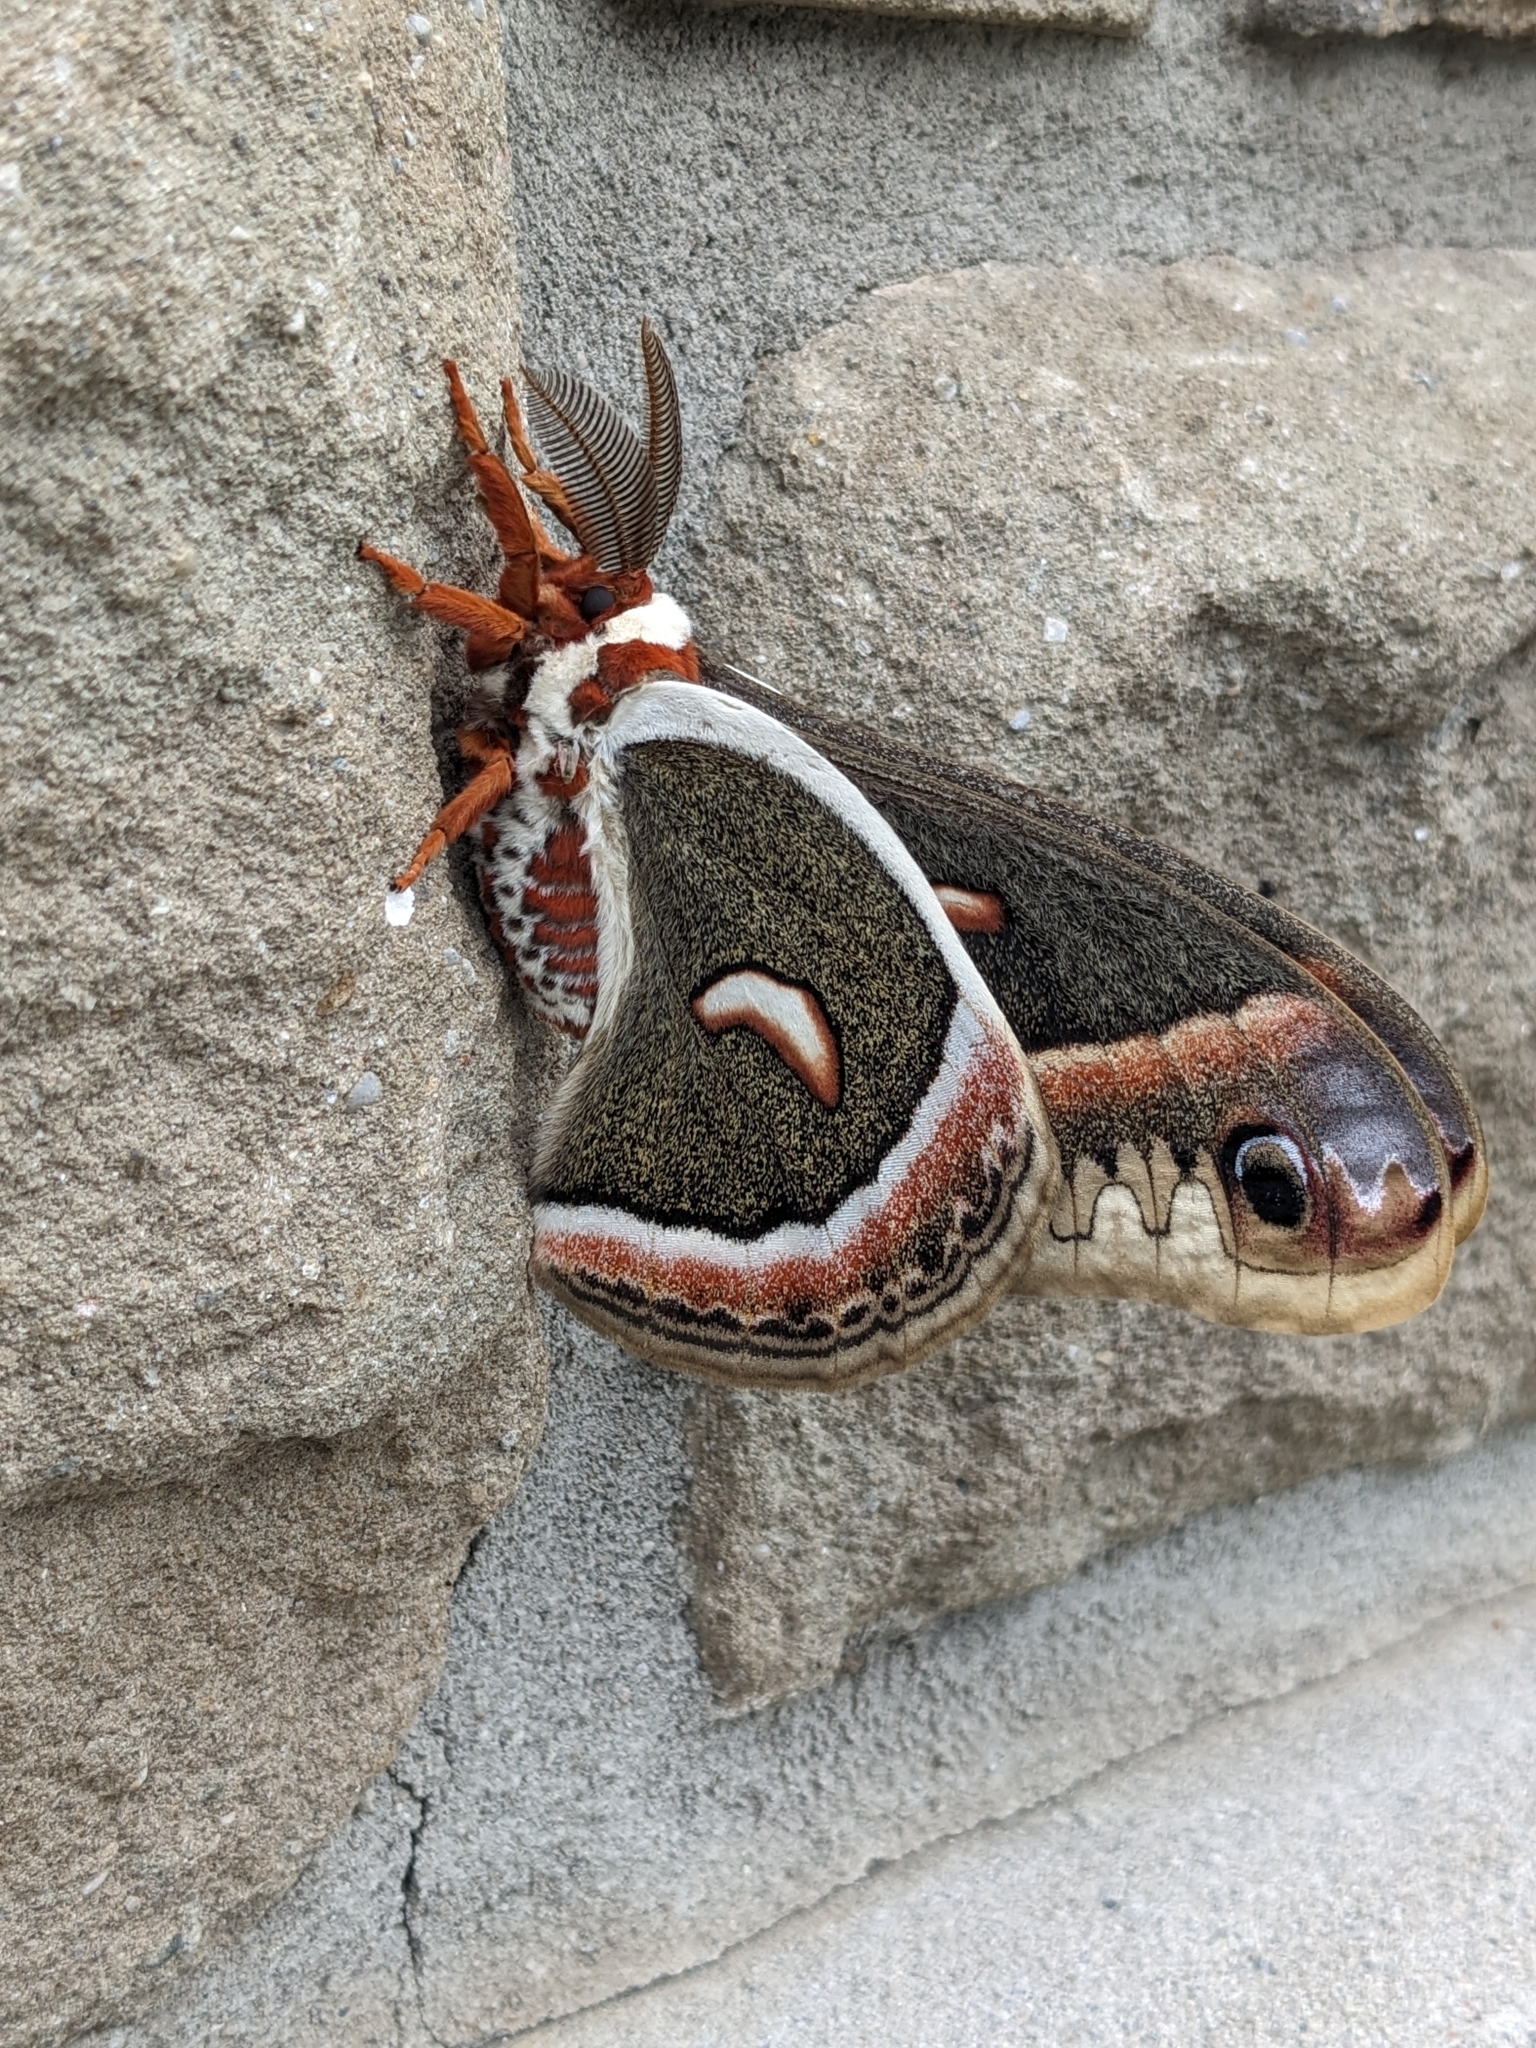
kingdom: Animalia
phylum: Arthropoda
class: Insecta
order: Lepidoptera
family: Saturniidae
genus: Hyalophora
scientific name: Hyalophora cecropia
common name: Cecropia silkmoth
